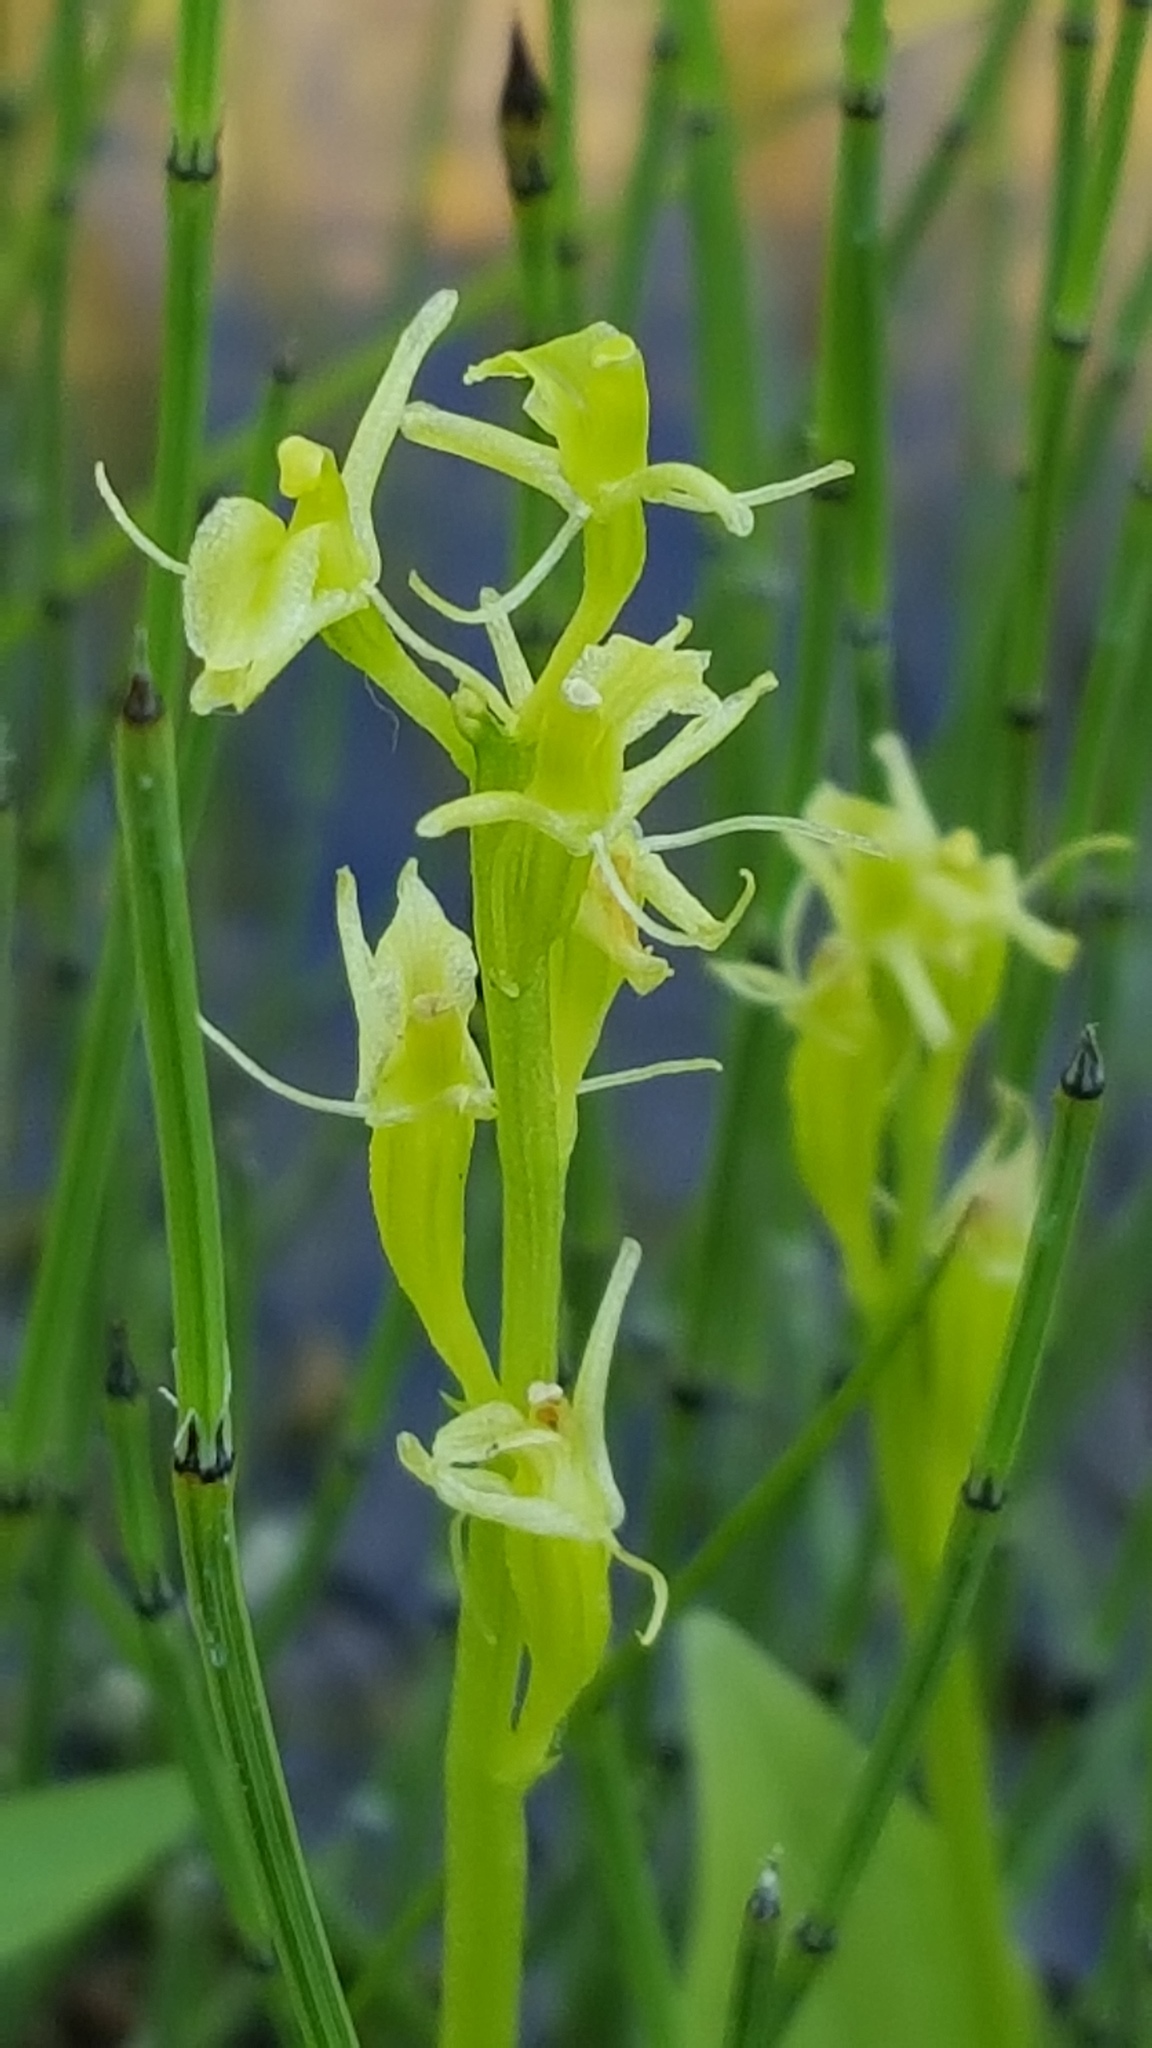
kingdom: Animalia
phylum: Arthropoda
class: Insecta
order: Coleoptera
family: Curculionidae
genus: Liparis
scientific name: Liparis loeselii
